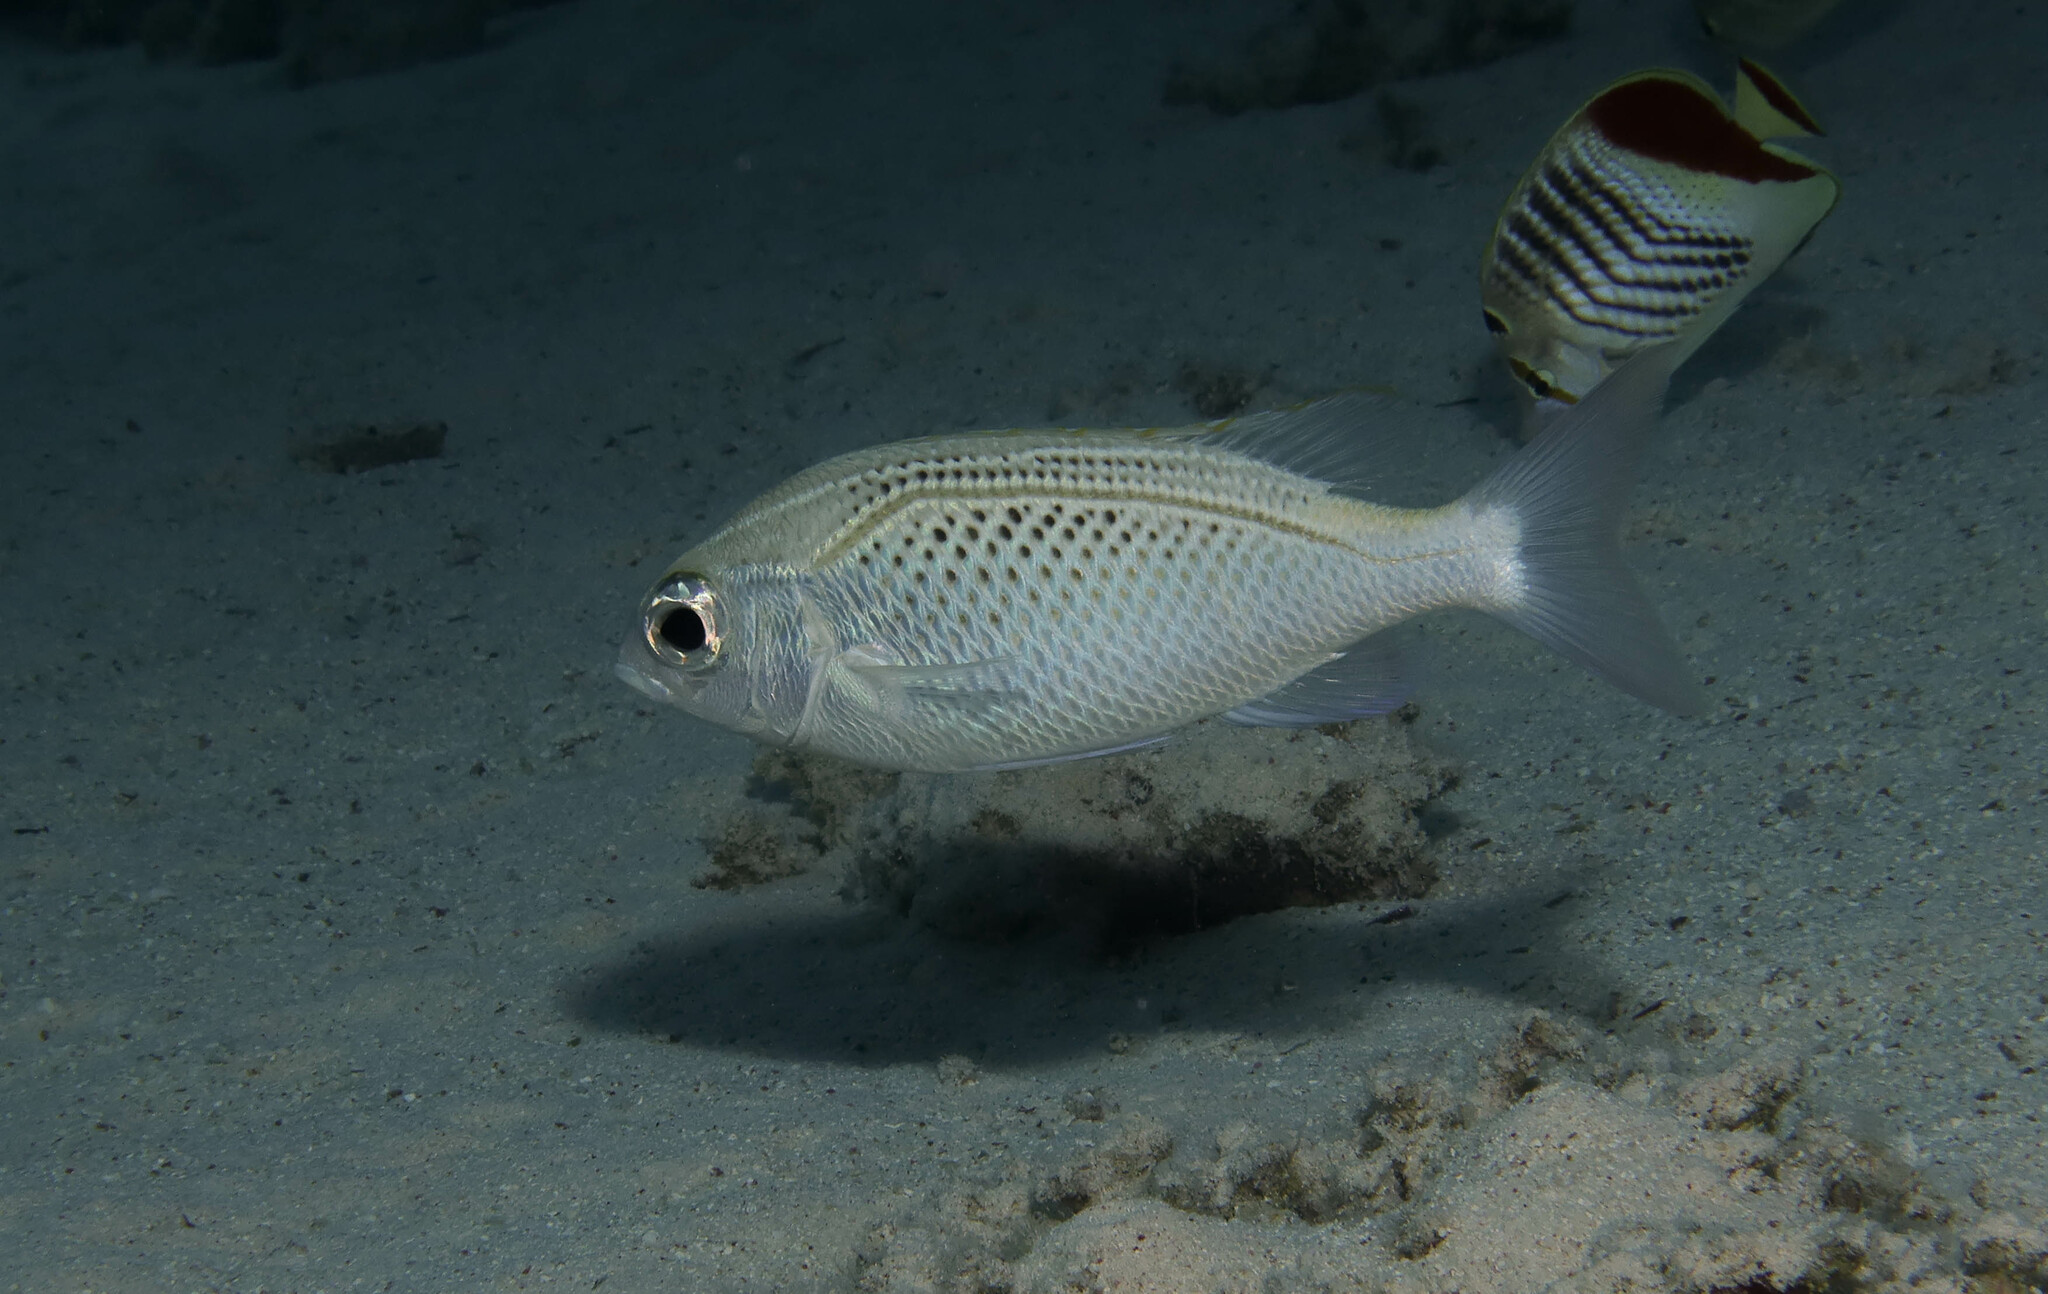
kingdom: Animalia
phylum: Chordata
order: Perciformes
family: Nemipteridae
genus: Scolopsis
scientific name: Scolopsis ghanam
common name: Arabian monocle bream
